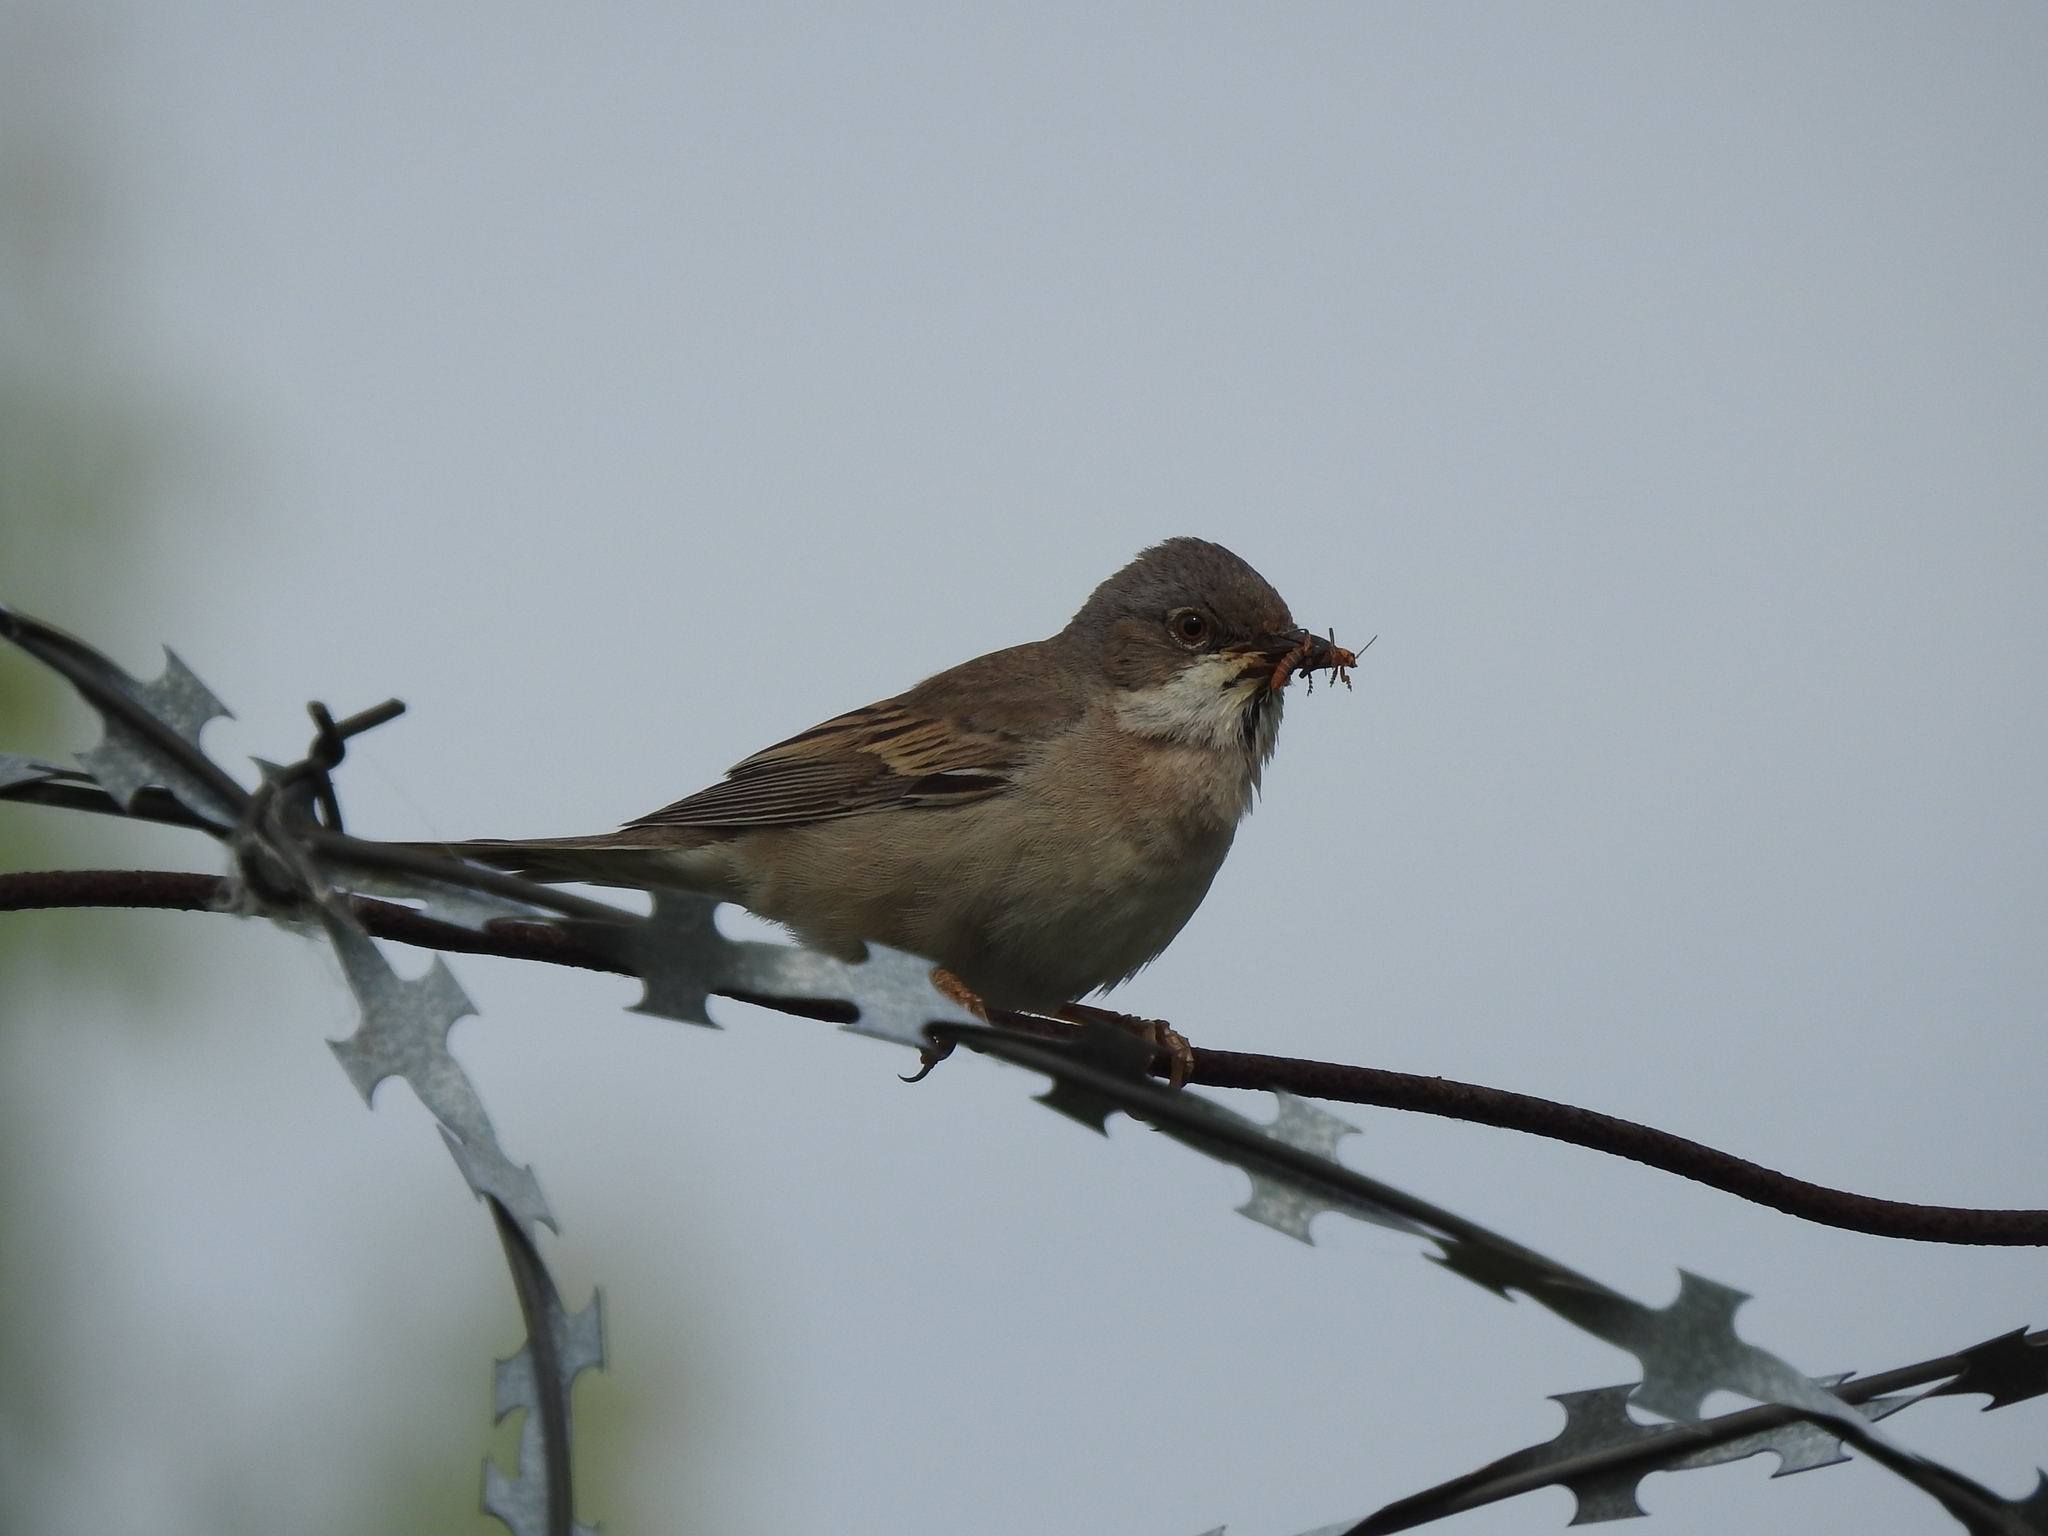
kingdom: Animalia
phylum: Chordata
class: Aves
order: Passeriformes
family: Sylviidae
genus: Sylvia
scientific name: Sylvia communis
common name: Common whitethroat
